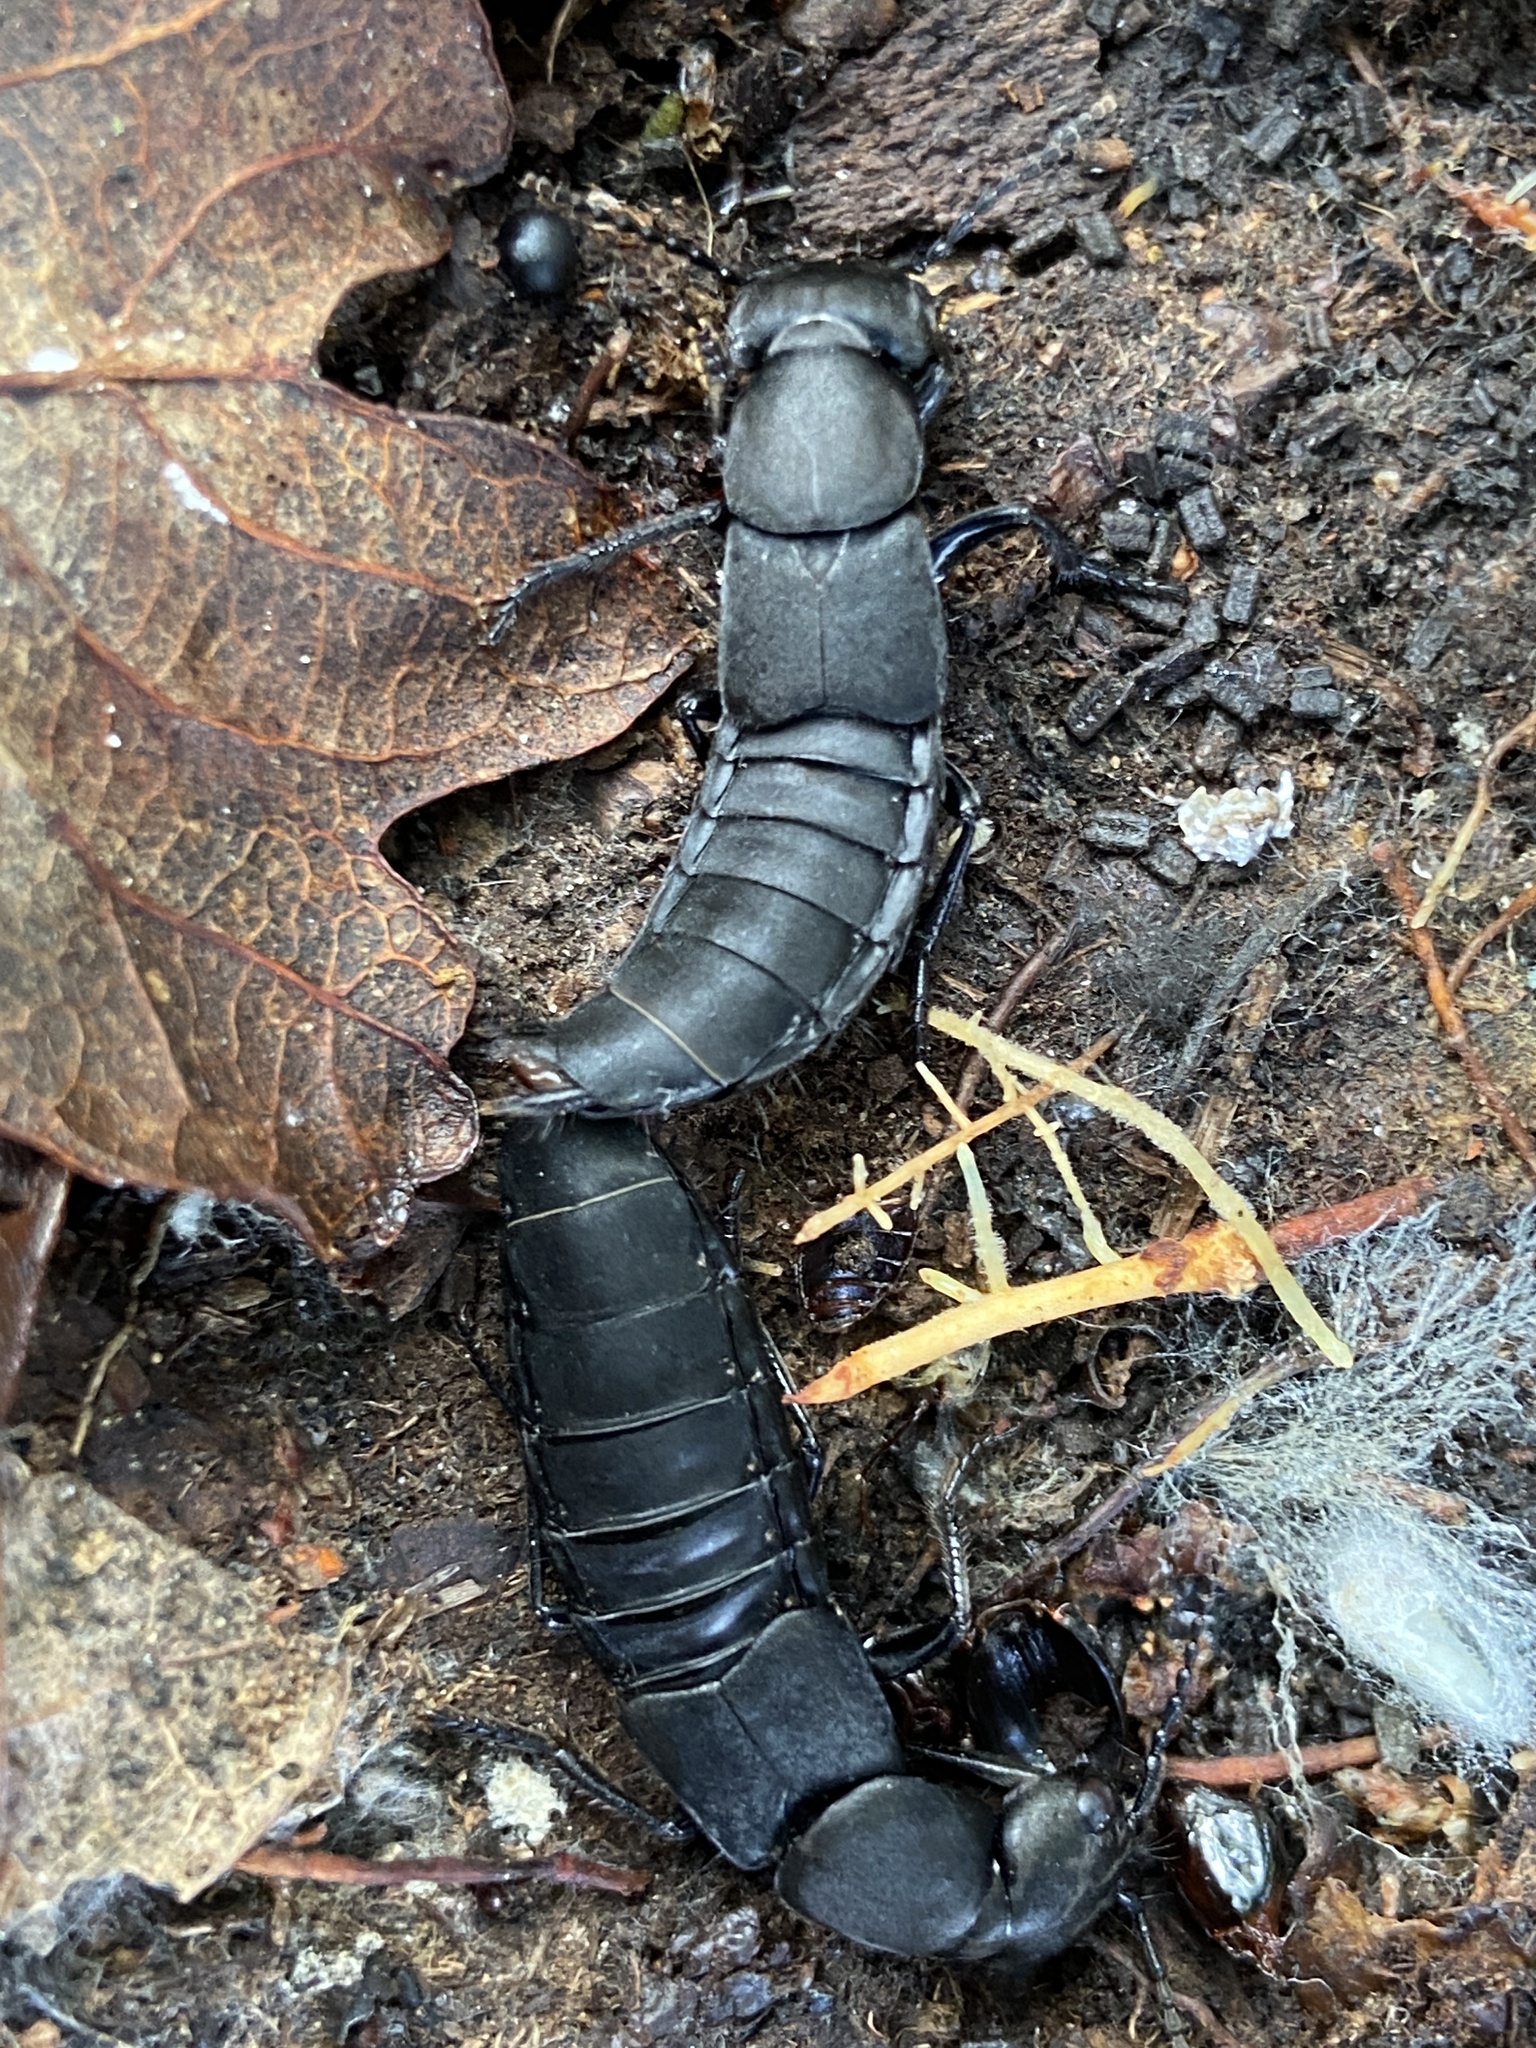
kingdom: Animalia
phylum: Arthropoda
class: Insecta
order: Coleoptera
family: Staphylinidae
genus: Ocypus
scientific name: Ocypus olens
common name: Devil's coach-horse
